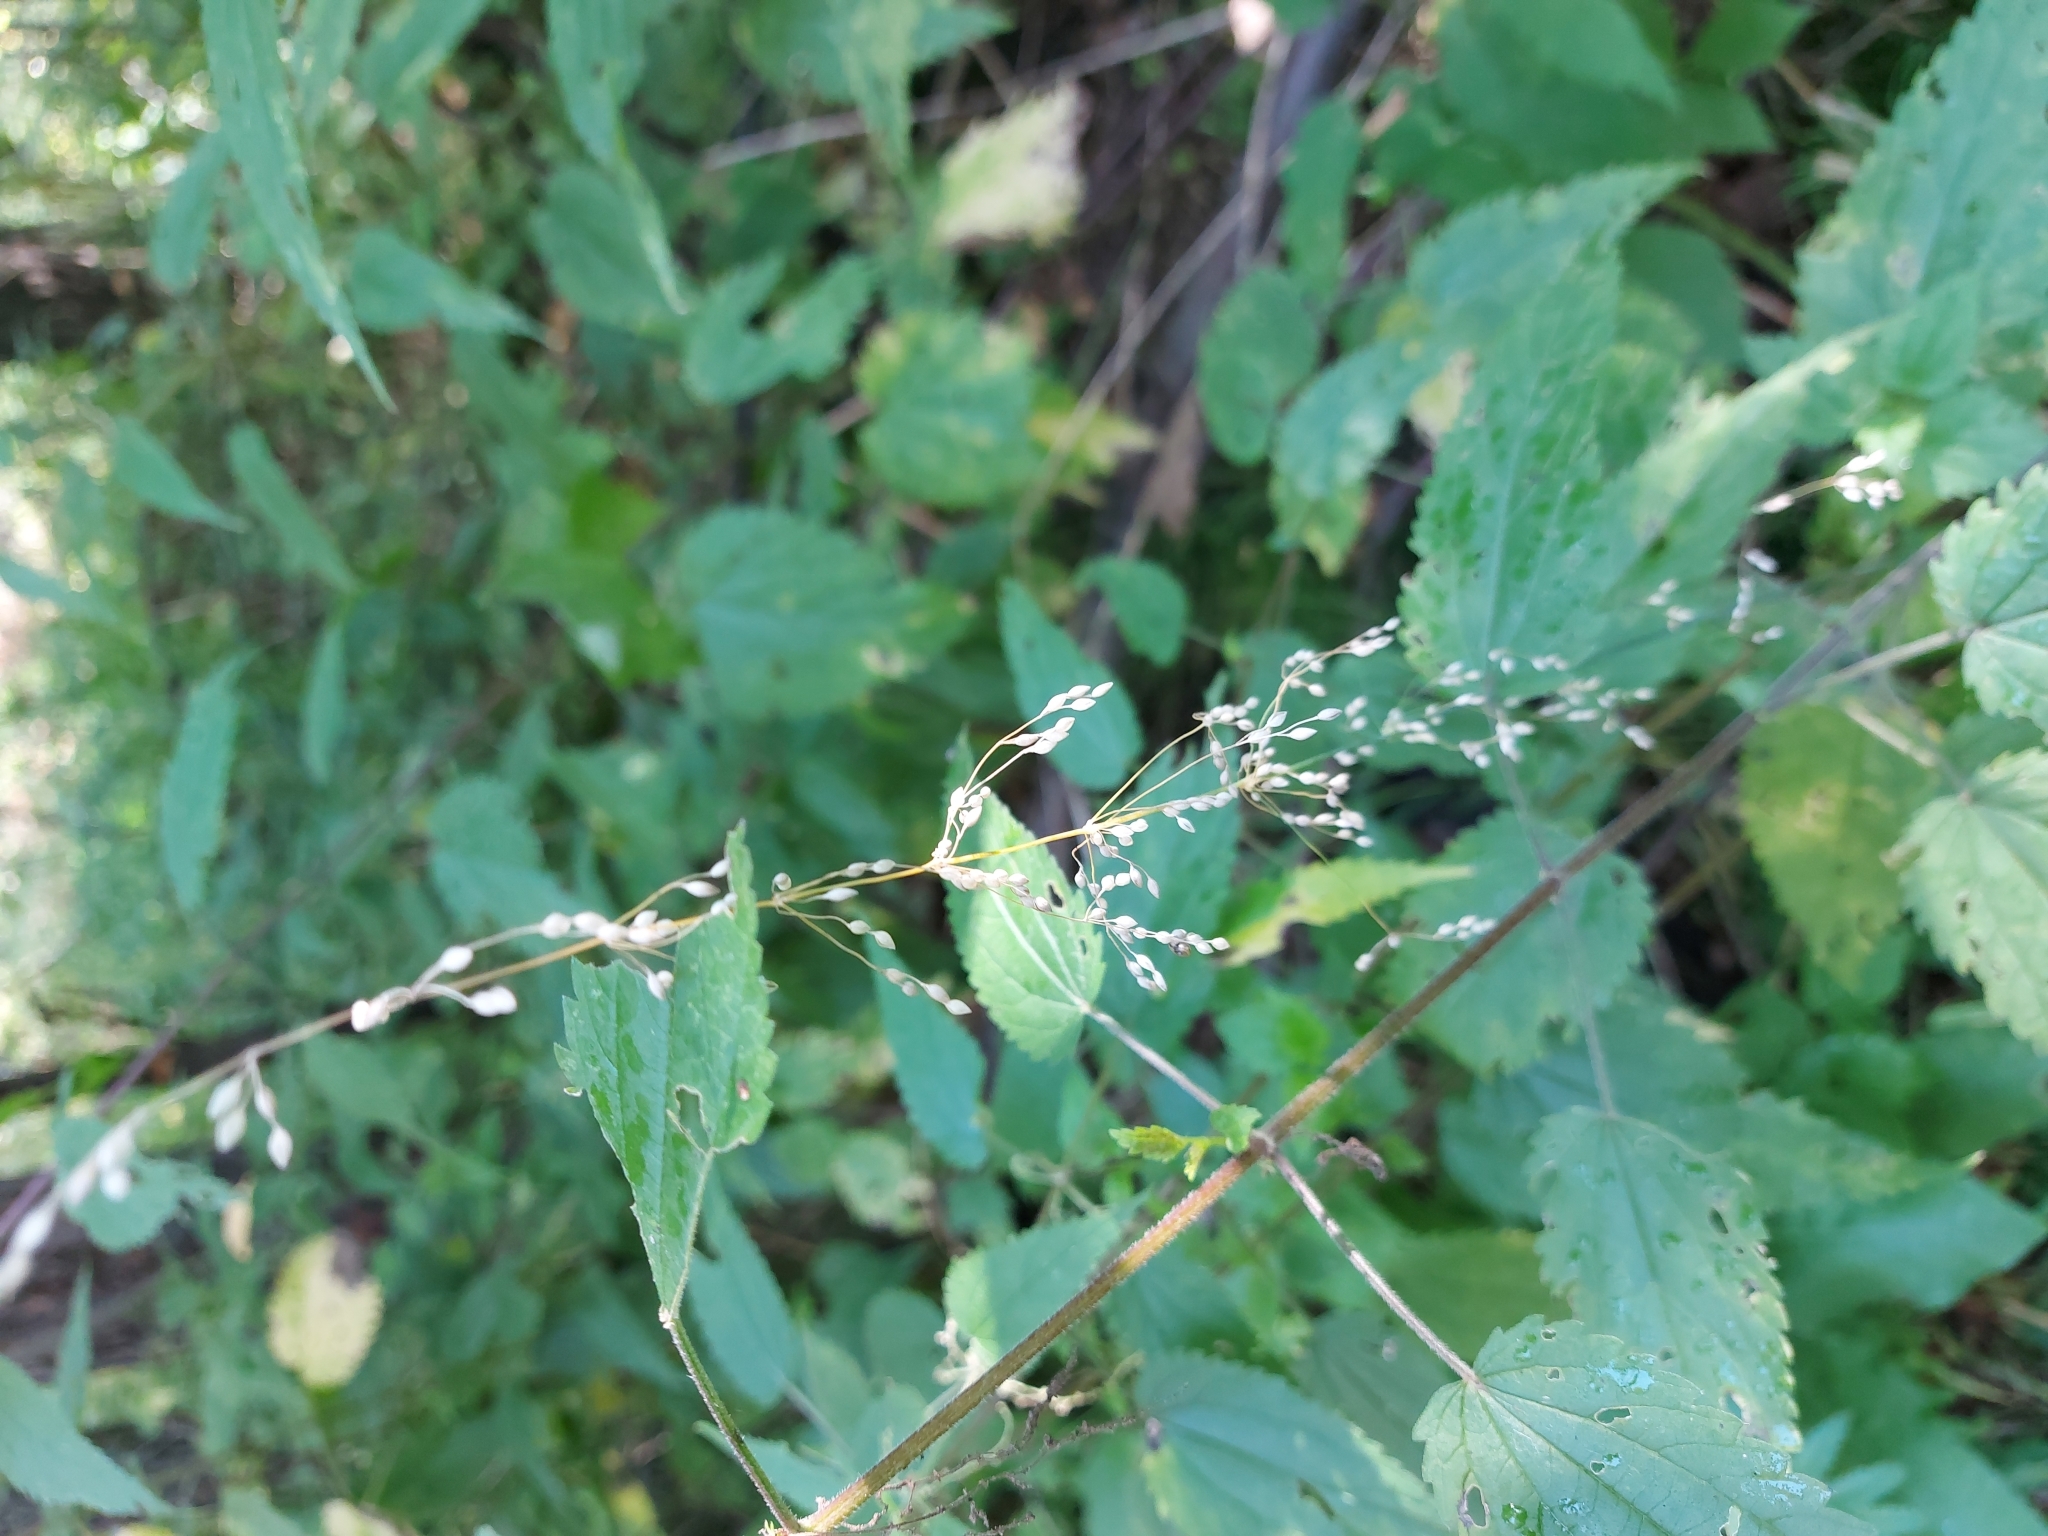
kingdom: Plantae
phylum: Tracheophyta
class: Liliopsida
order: Poales
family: Poaceae
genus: Milium
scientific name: Milium effusum
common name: Wood millet
